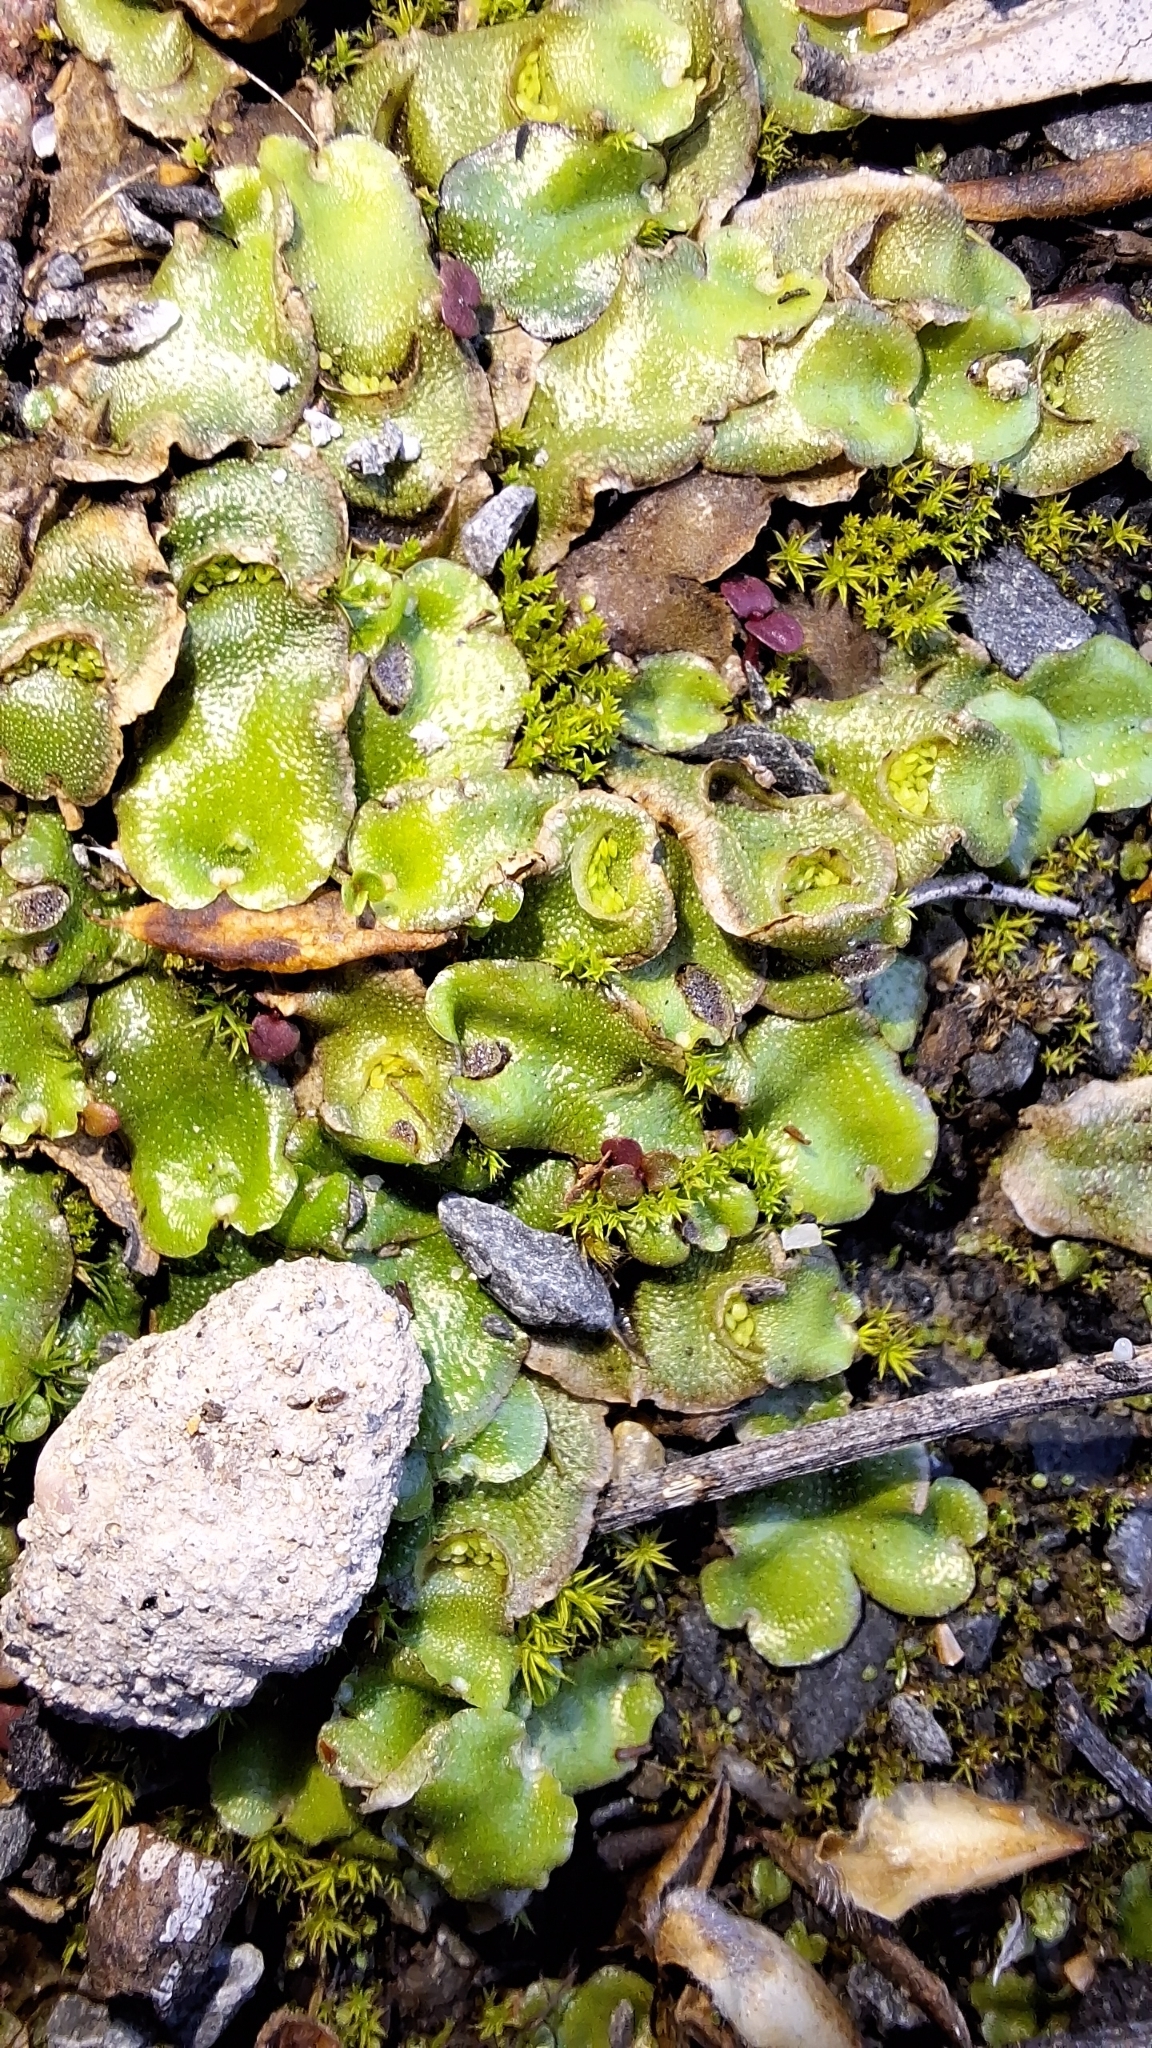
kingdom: Plantae
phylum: Marchantiophyta
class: Marchantiopsida
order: Lunulariales
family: Lunulariaceae
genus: Lunularia
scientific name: Lunularia cruciata
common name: Crescent-cup liverwort
